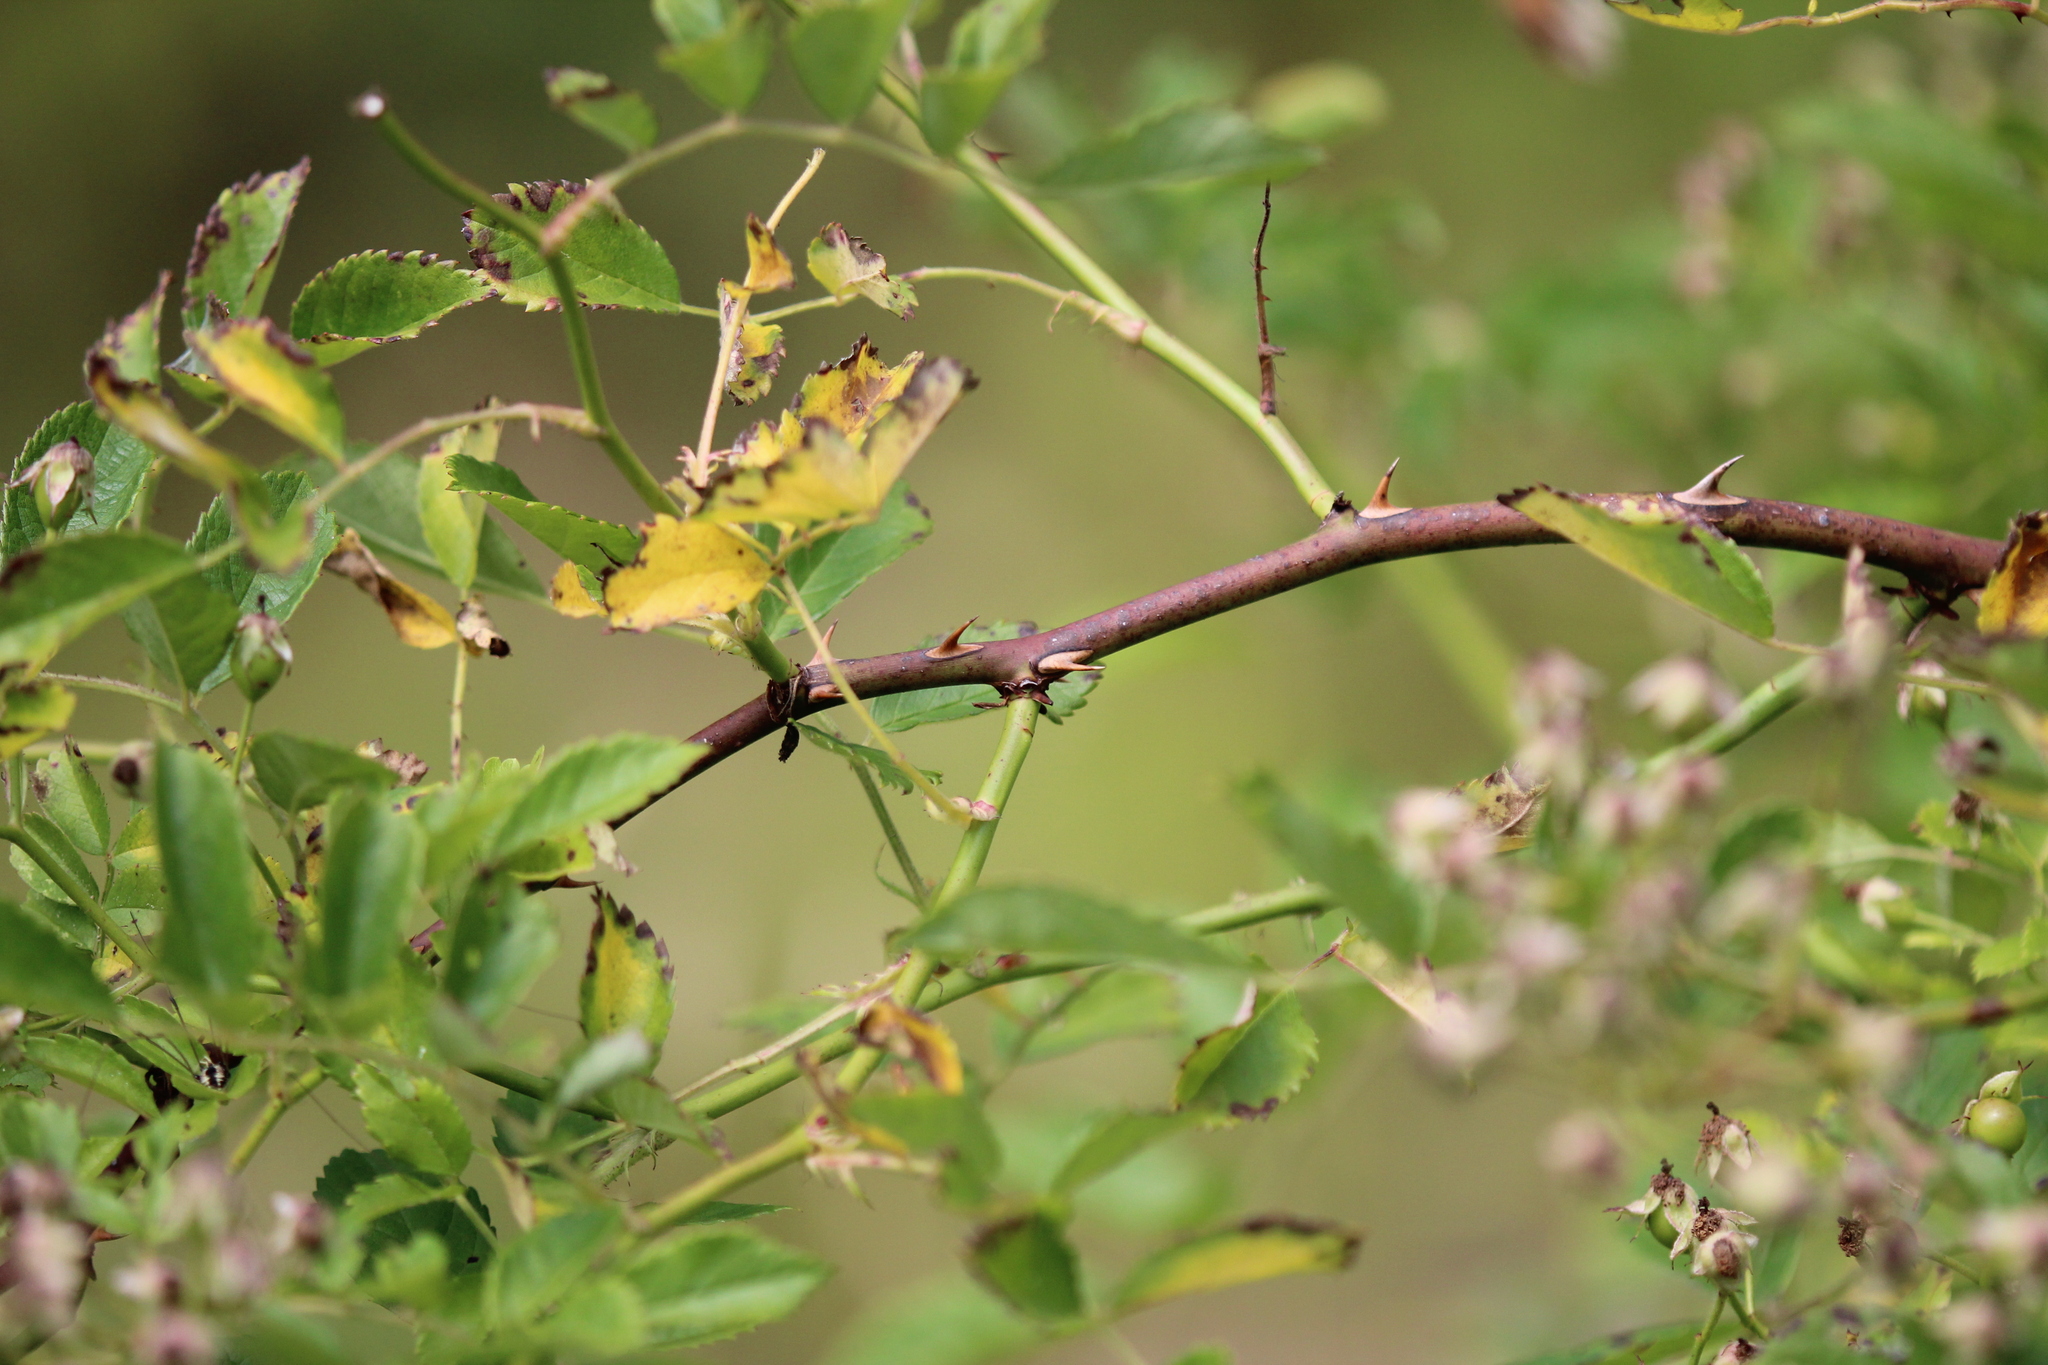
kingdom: Plantae
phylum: Tracheophyta
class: Magnoliopsida
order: Rosales
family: Rosaceae
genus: Rosa
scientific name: Rosa multiflora
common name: Multiflora rose
